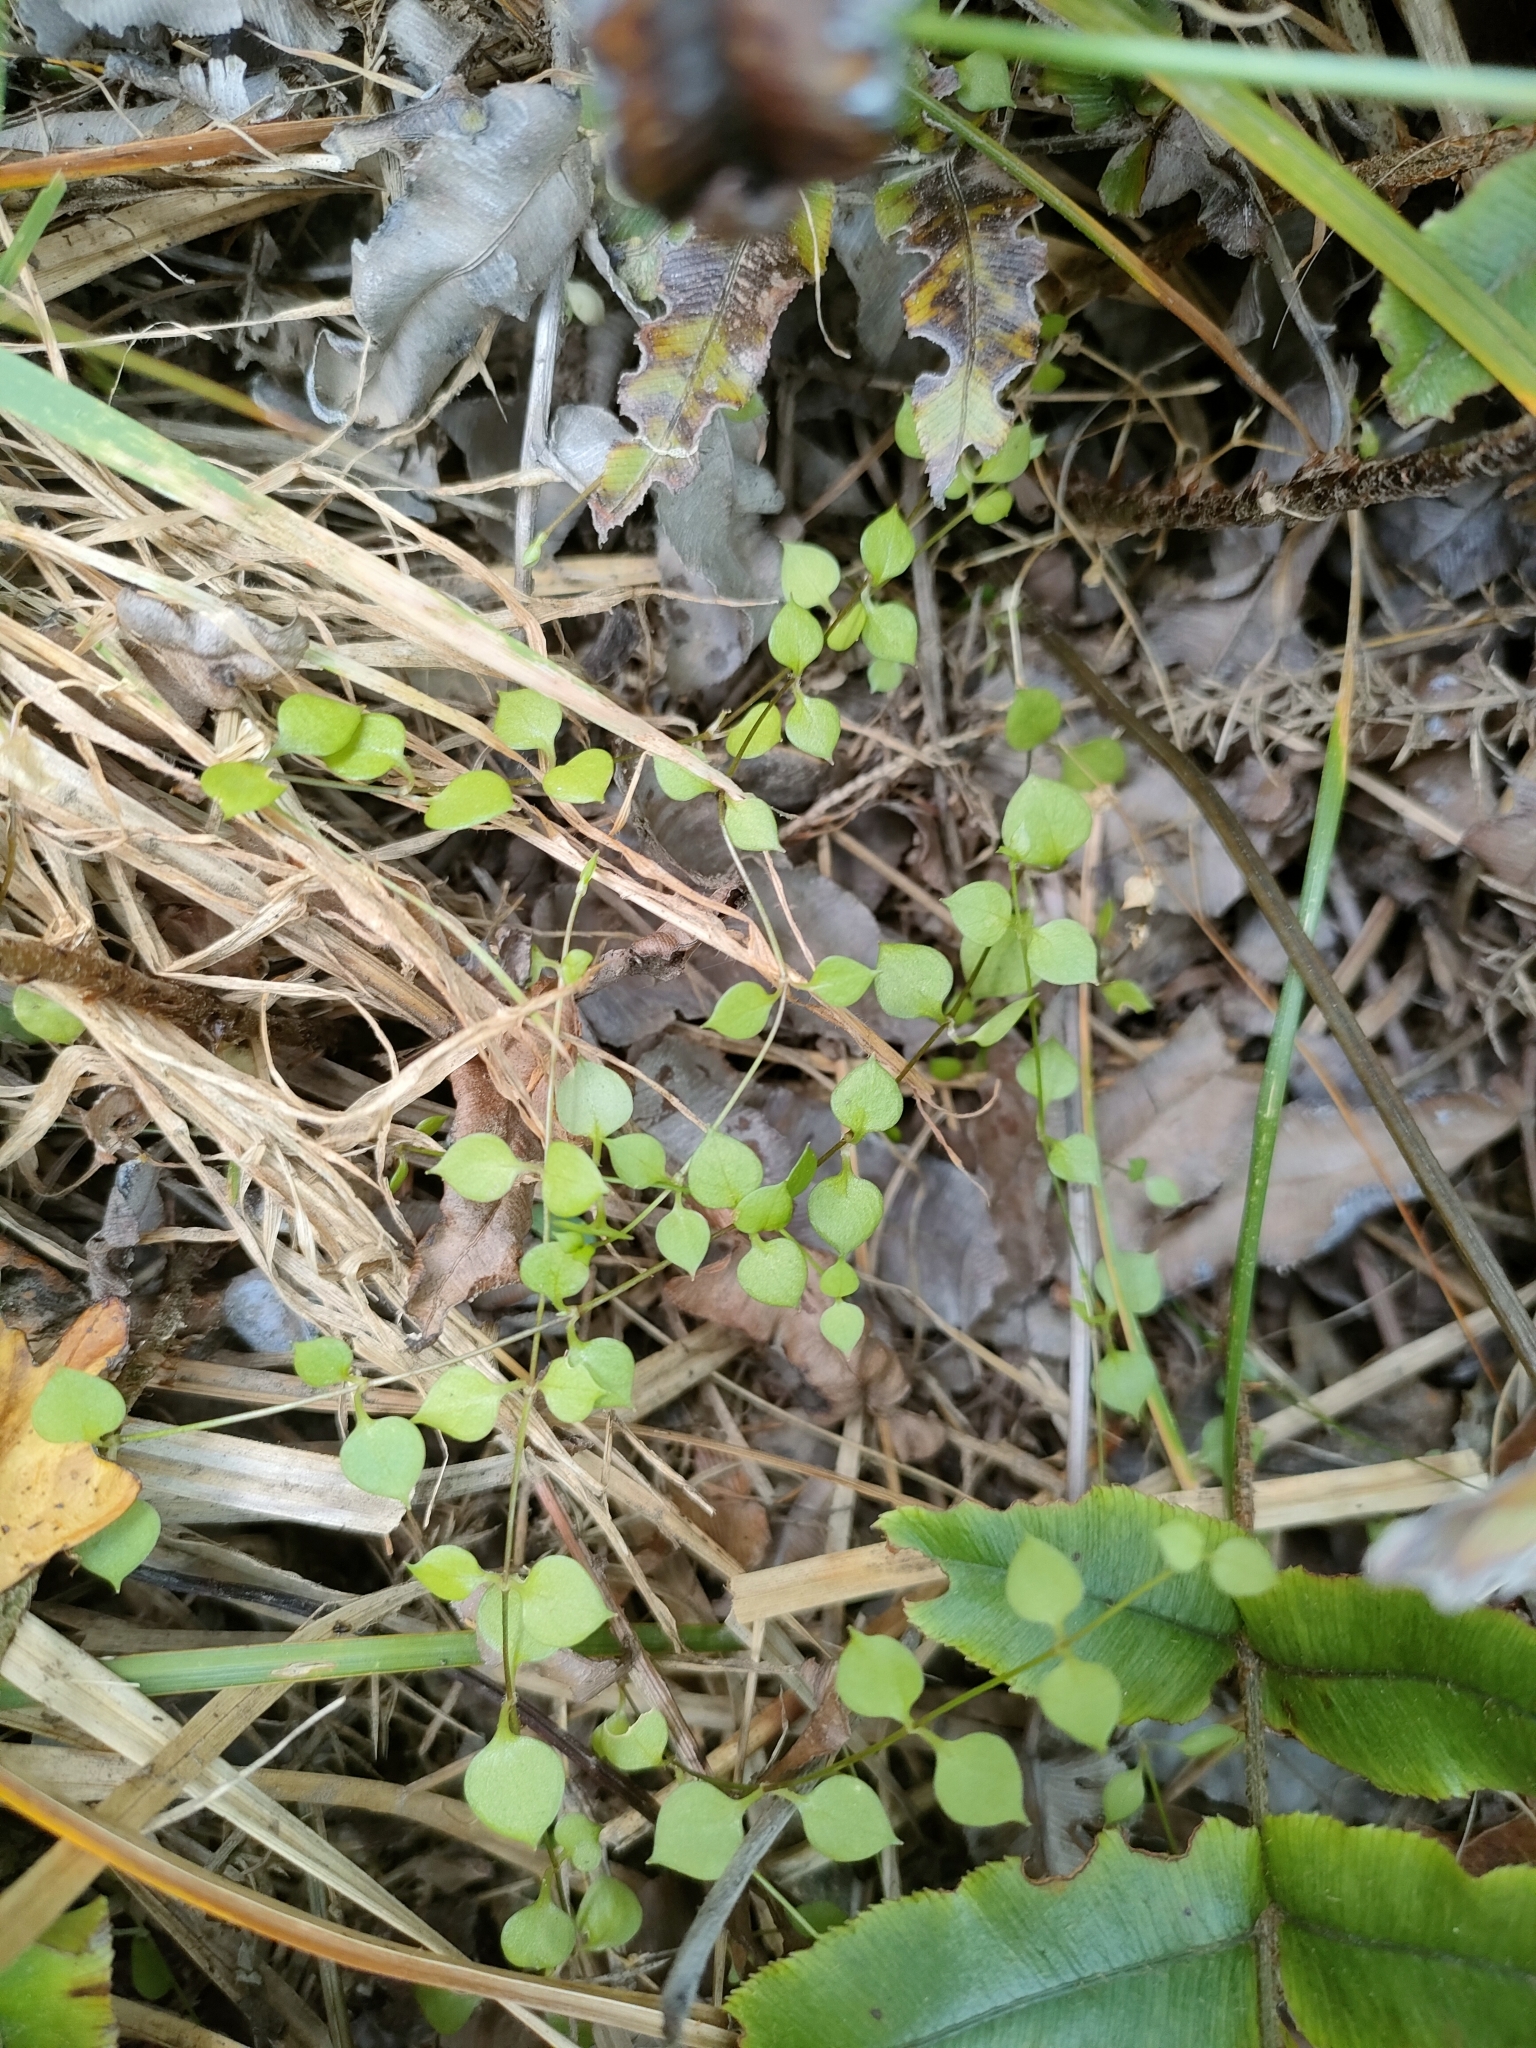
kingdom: Plantae
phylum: Tracheophyta
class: Magnoliopsida
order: Caryophyllales
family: Caryophyllaceae
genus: Stellaria
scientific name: Stellaria parviflora
